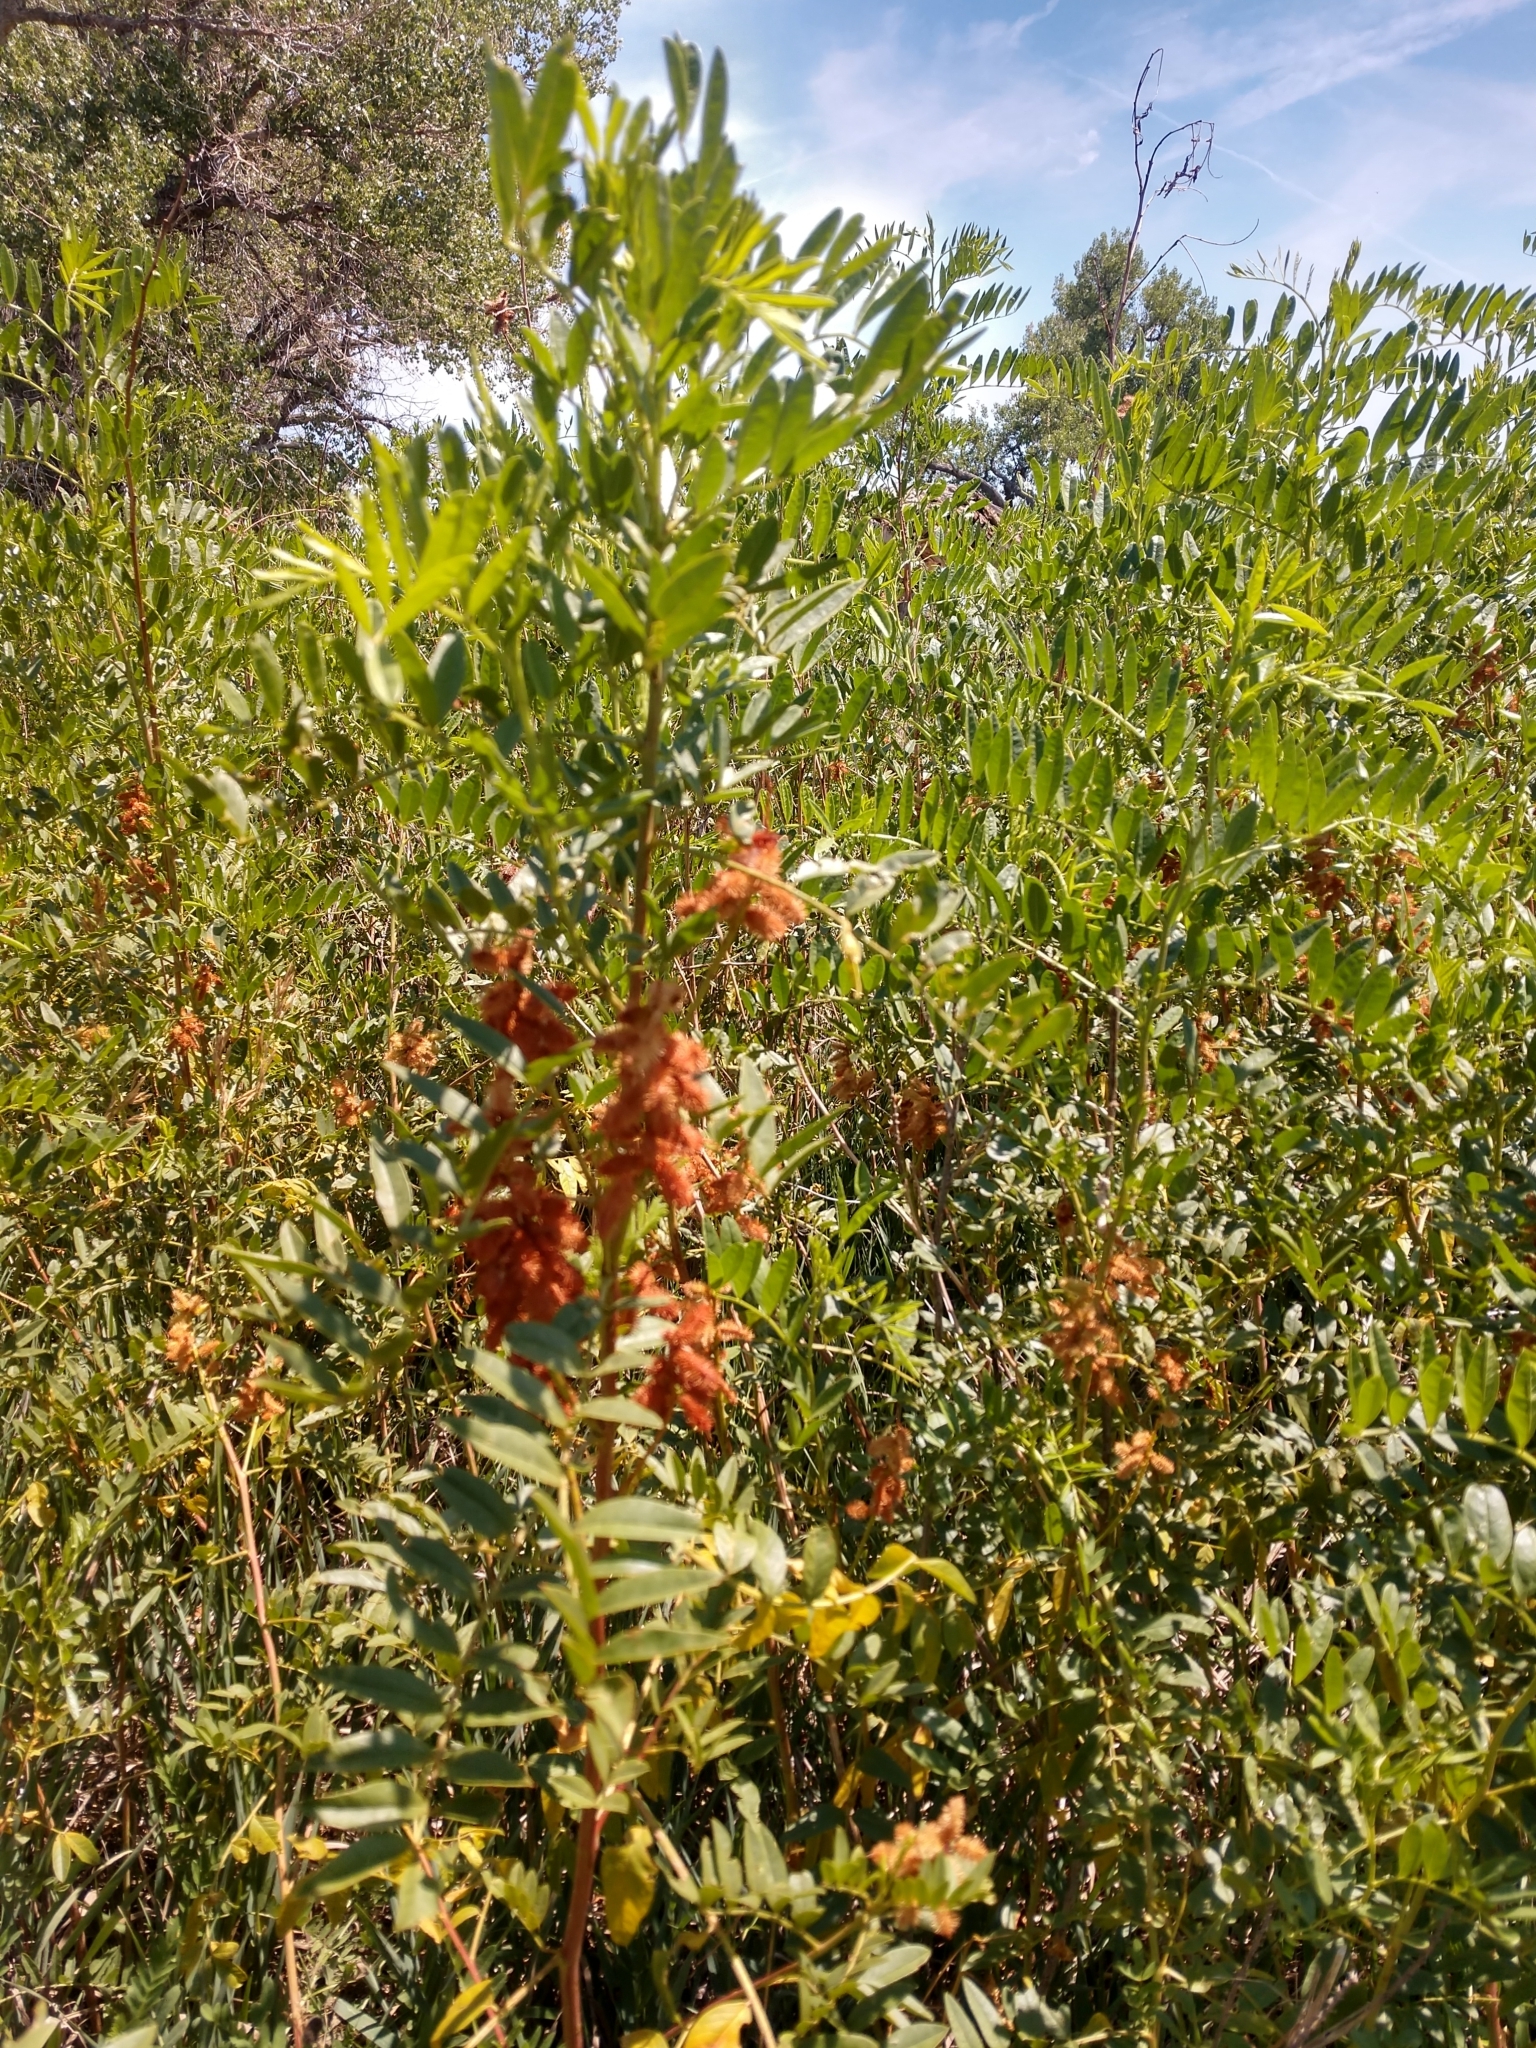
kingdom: Plantae
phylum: Tracheophyta
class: Magnoliopsida
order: Fabales
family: Fabaceae
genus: Glycyrrhiza
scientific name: Glycyrrhiza lepidota
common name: American liquorice
